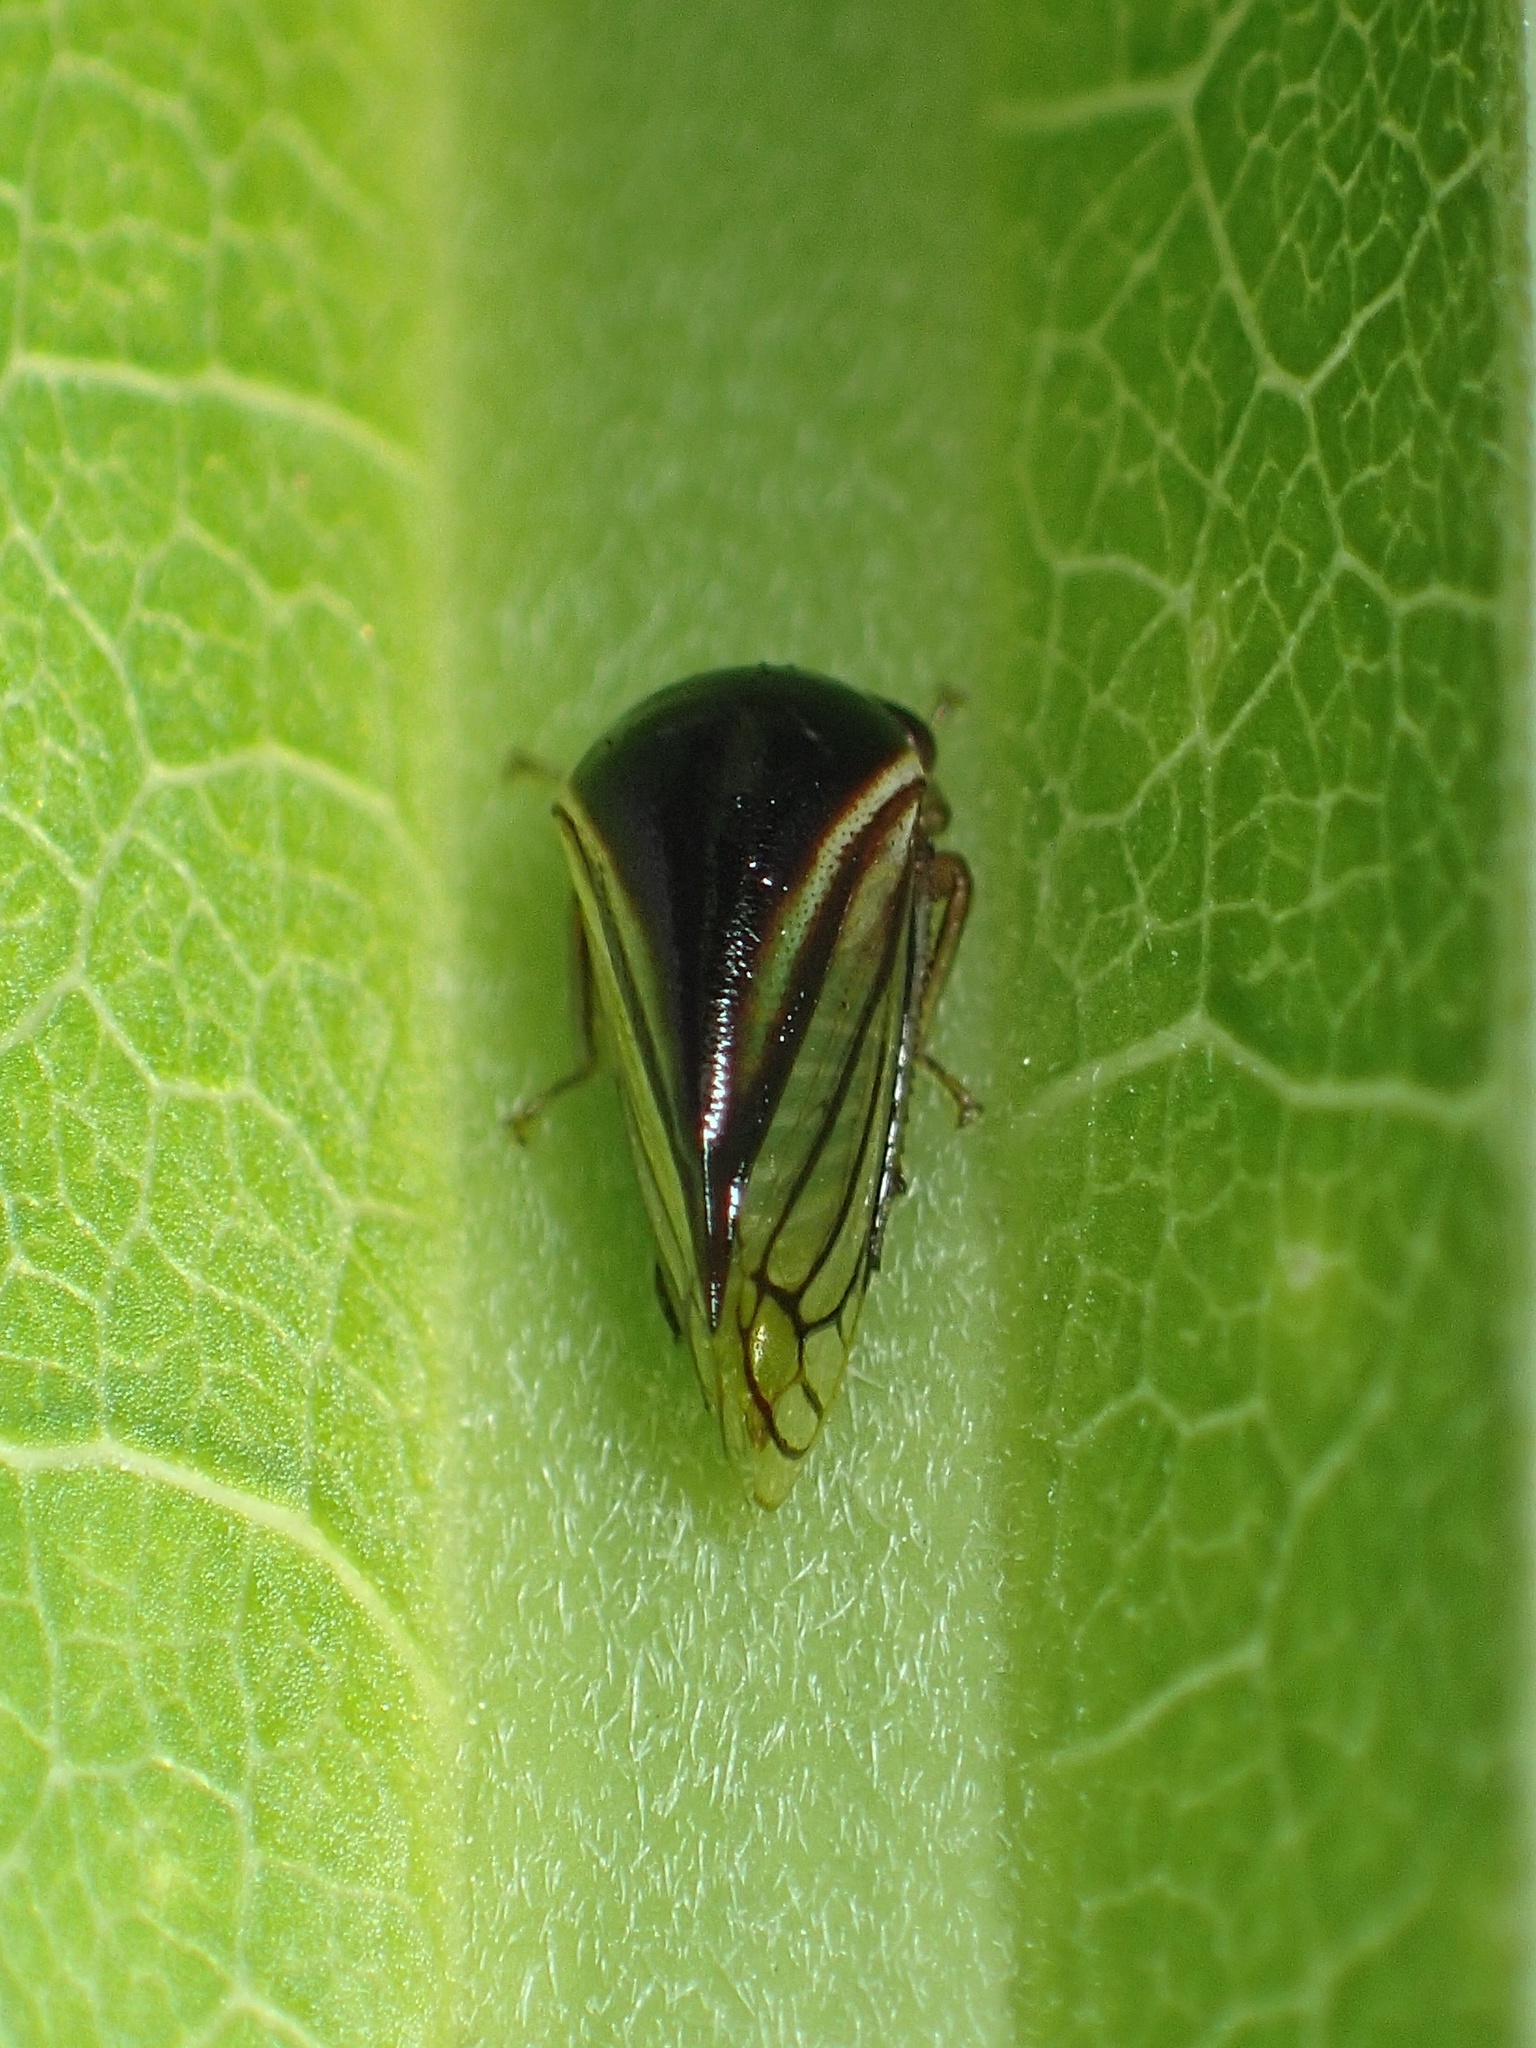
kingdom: Animalia
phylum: Arthropoda
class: Insecta
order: Hemiptera
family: Membracidae
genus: Acutalis
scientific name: Acutalis tartarea
